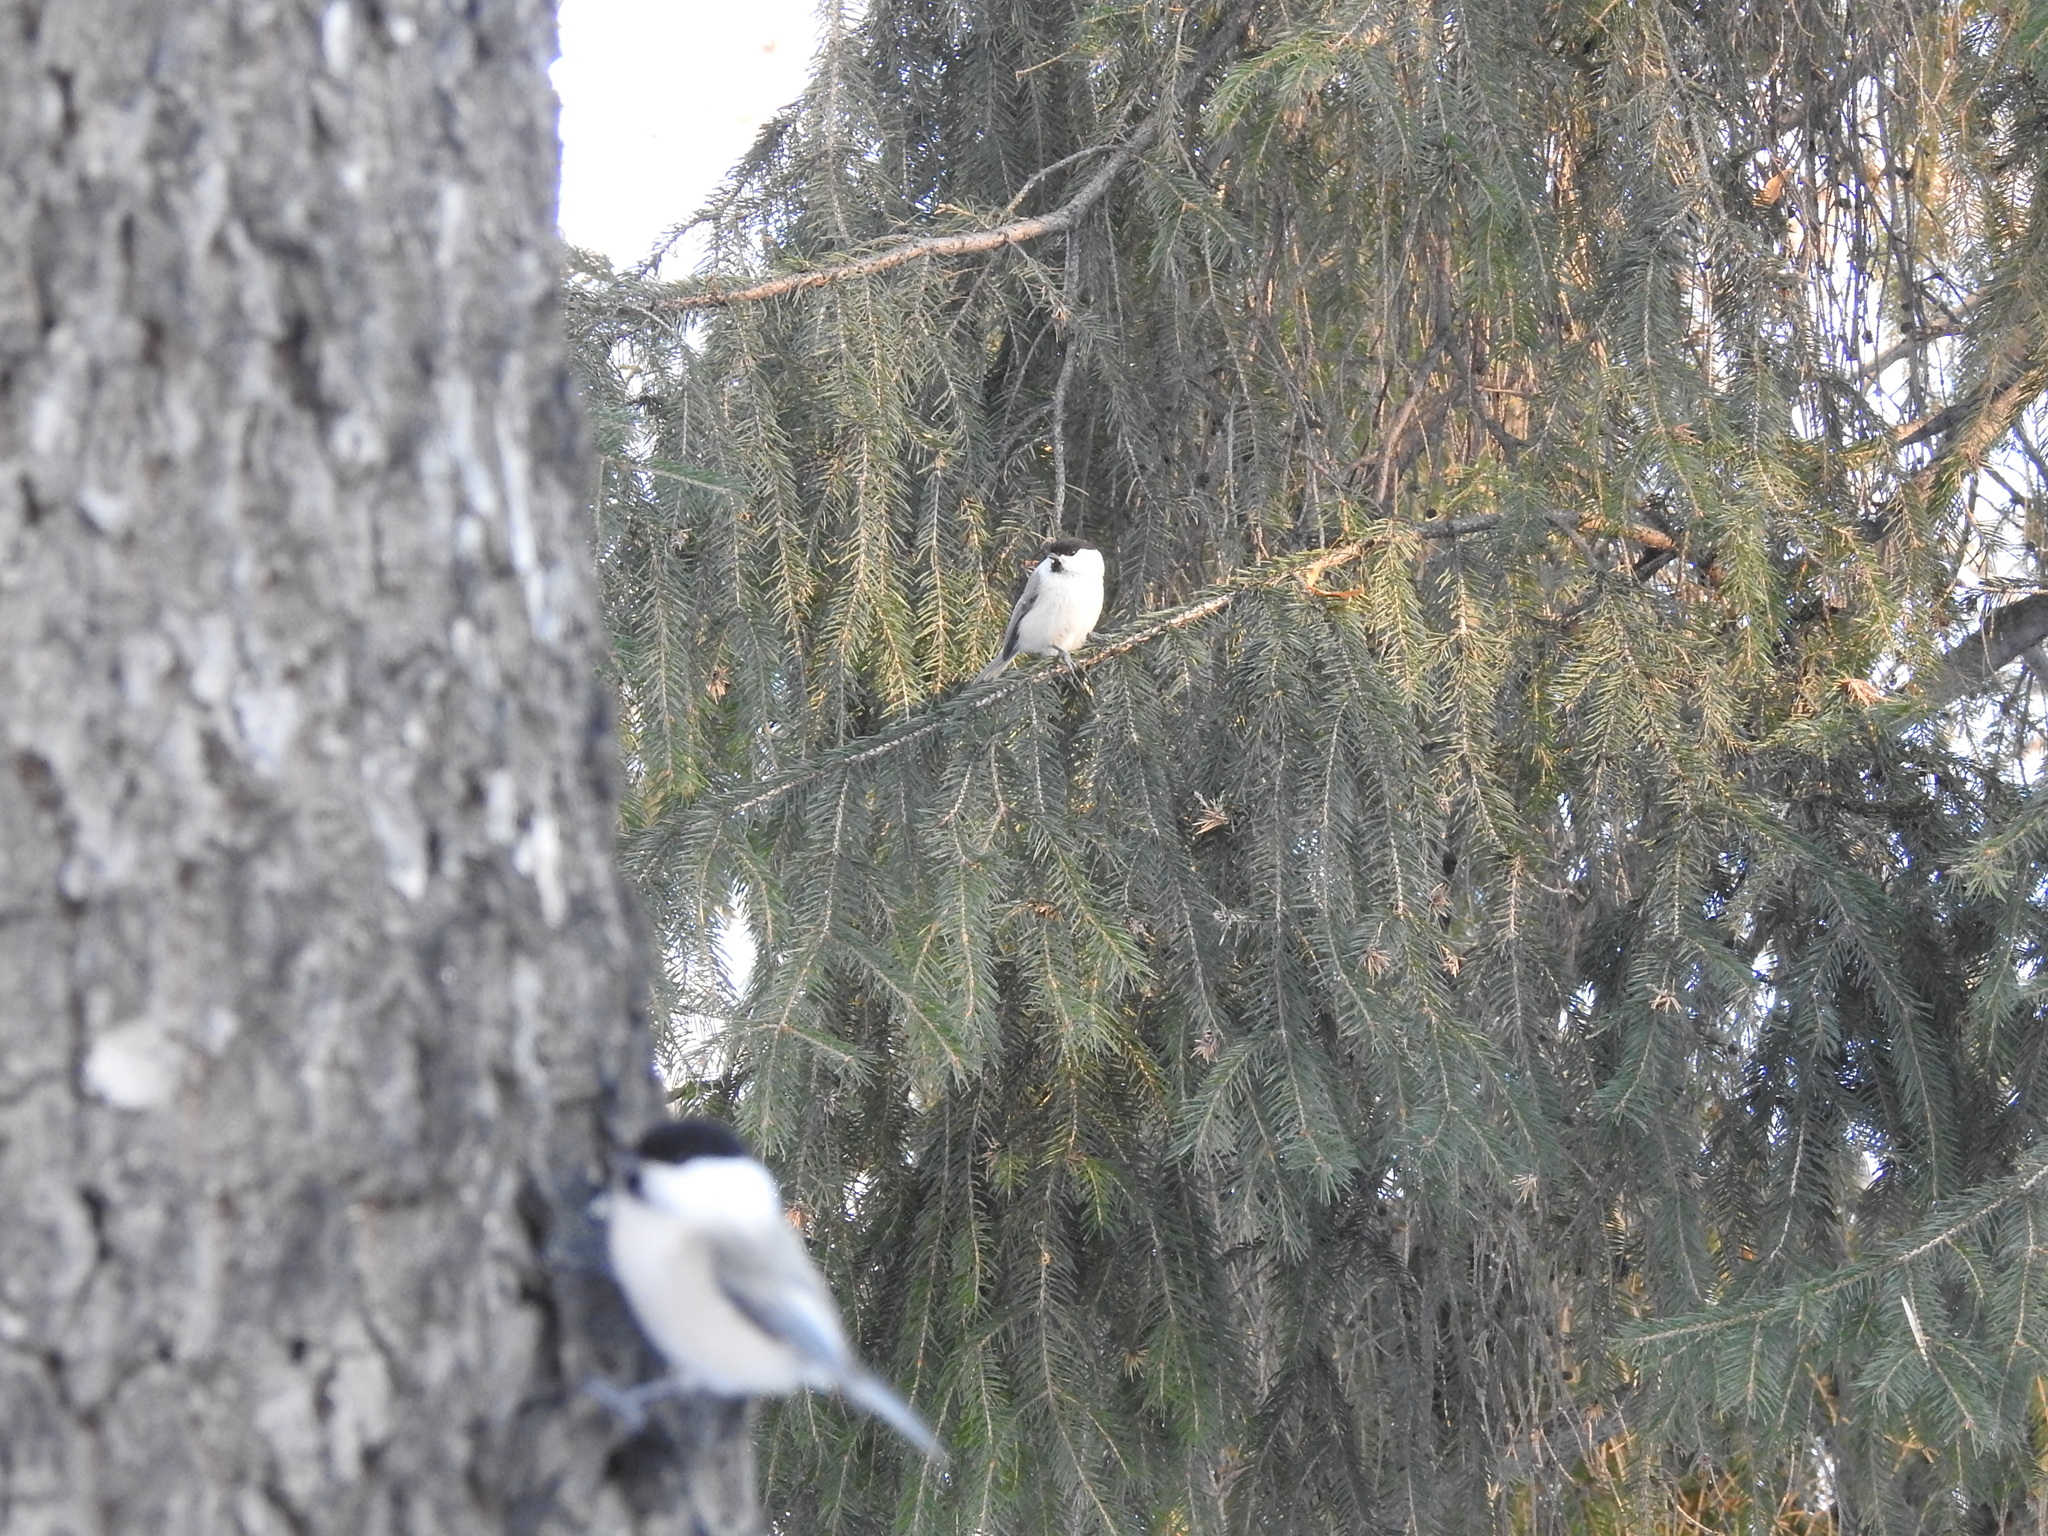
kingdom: Animalia
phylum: Chordata
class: Aves
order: Passeriformes
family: Paridae
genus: Poecile
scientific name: Poecile montanus
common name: Willow tit
